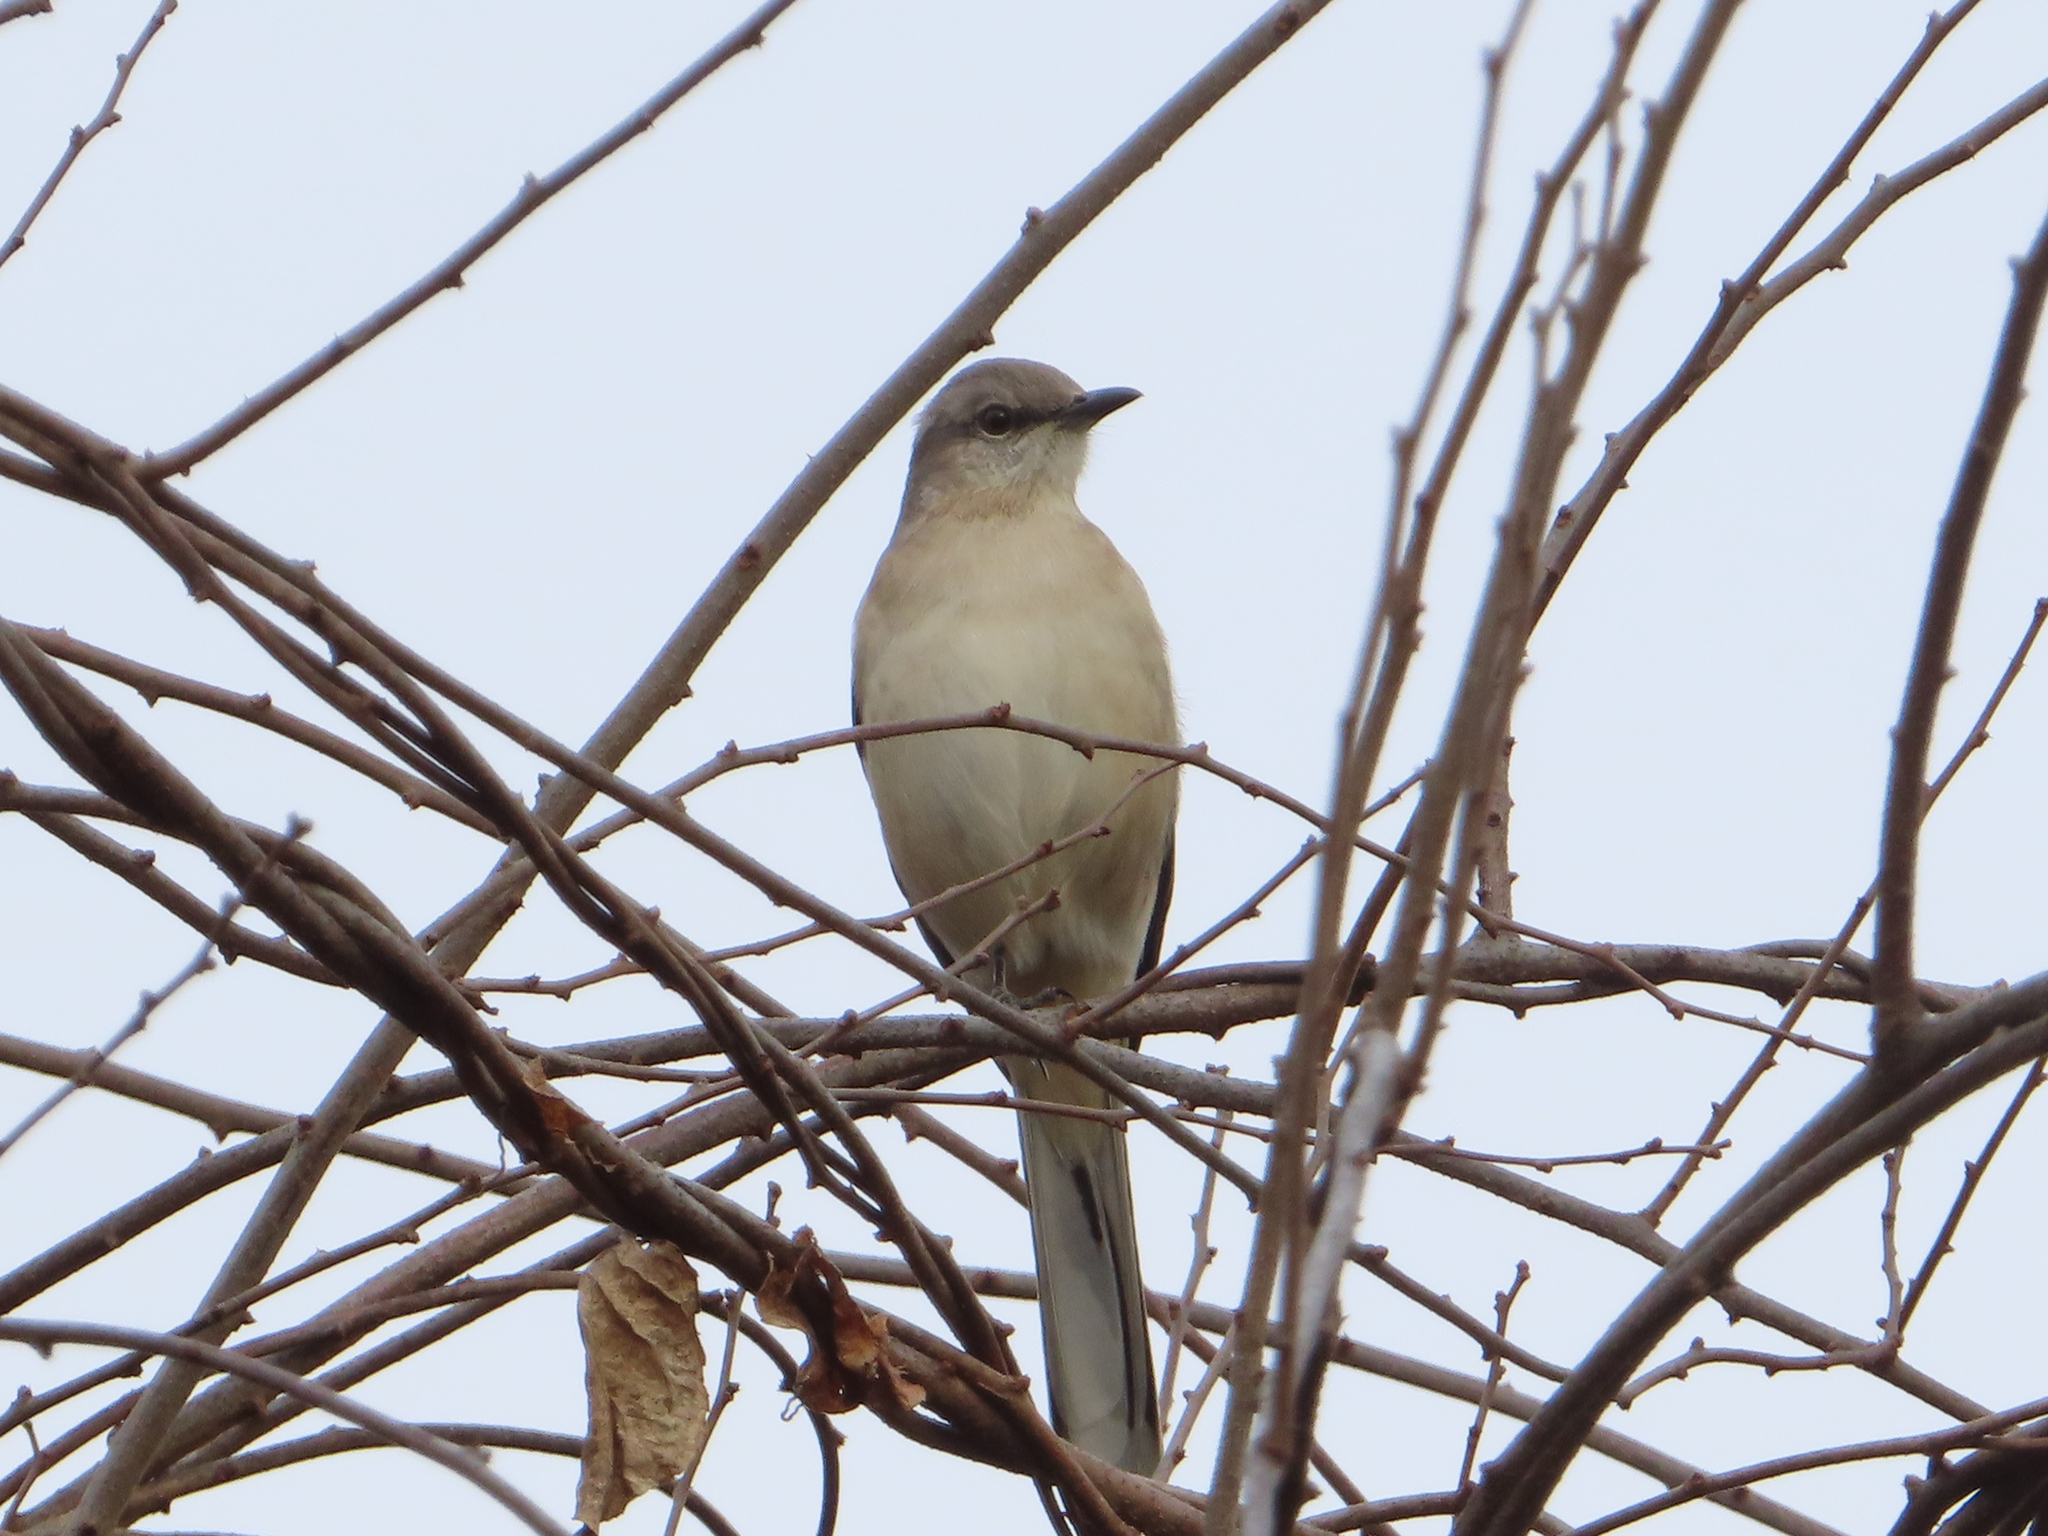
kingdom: Animalia
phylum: Chordata
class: Aves
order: Passeriformes
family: Mimidae
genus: Mimus
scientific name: Mimus polyglottos
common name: Northern mockingbird
